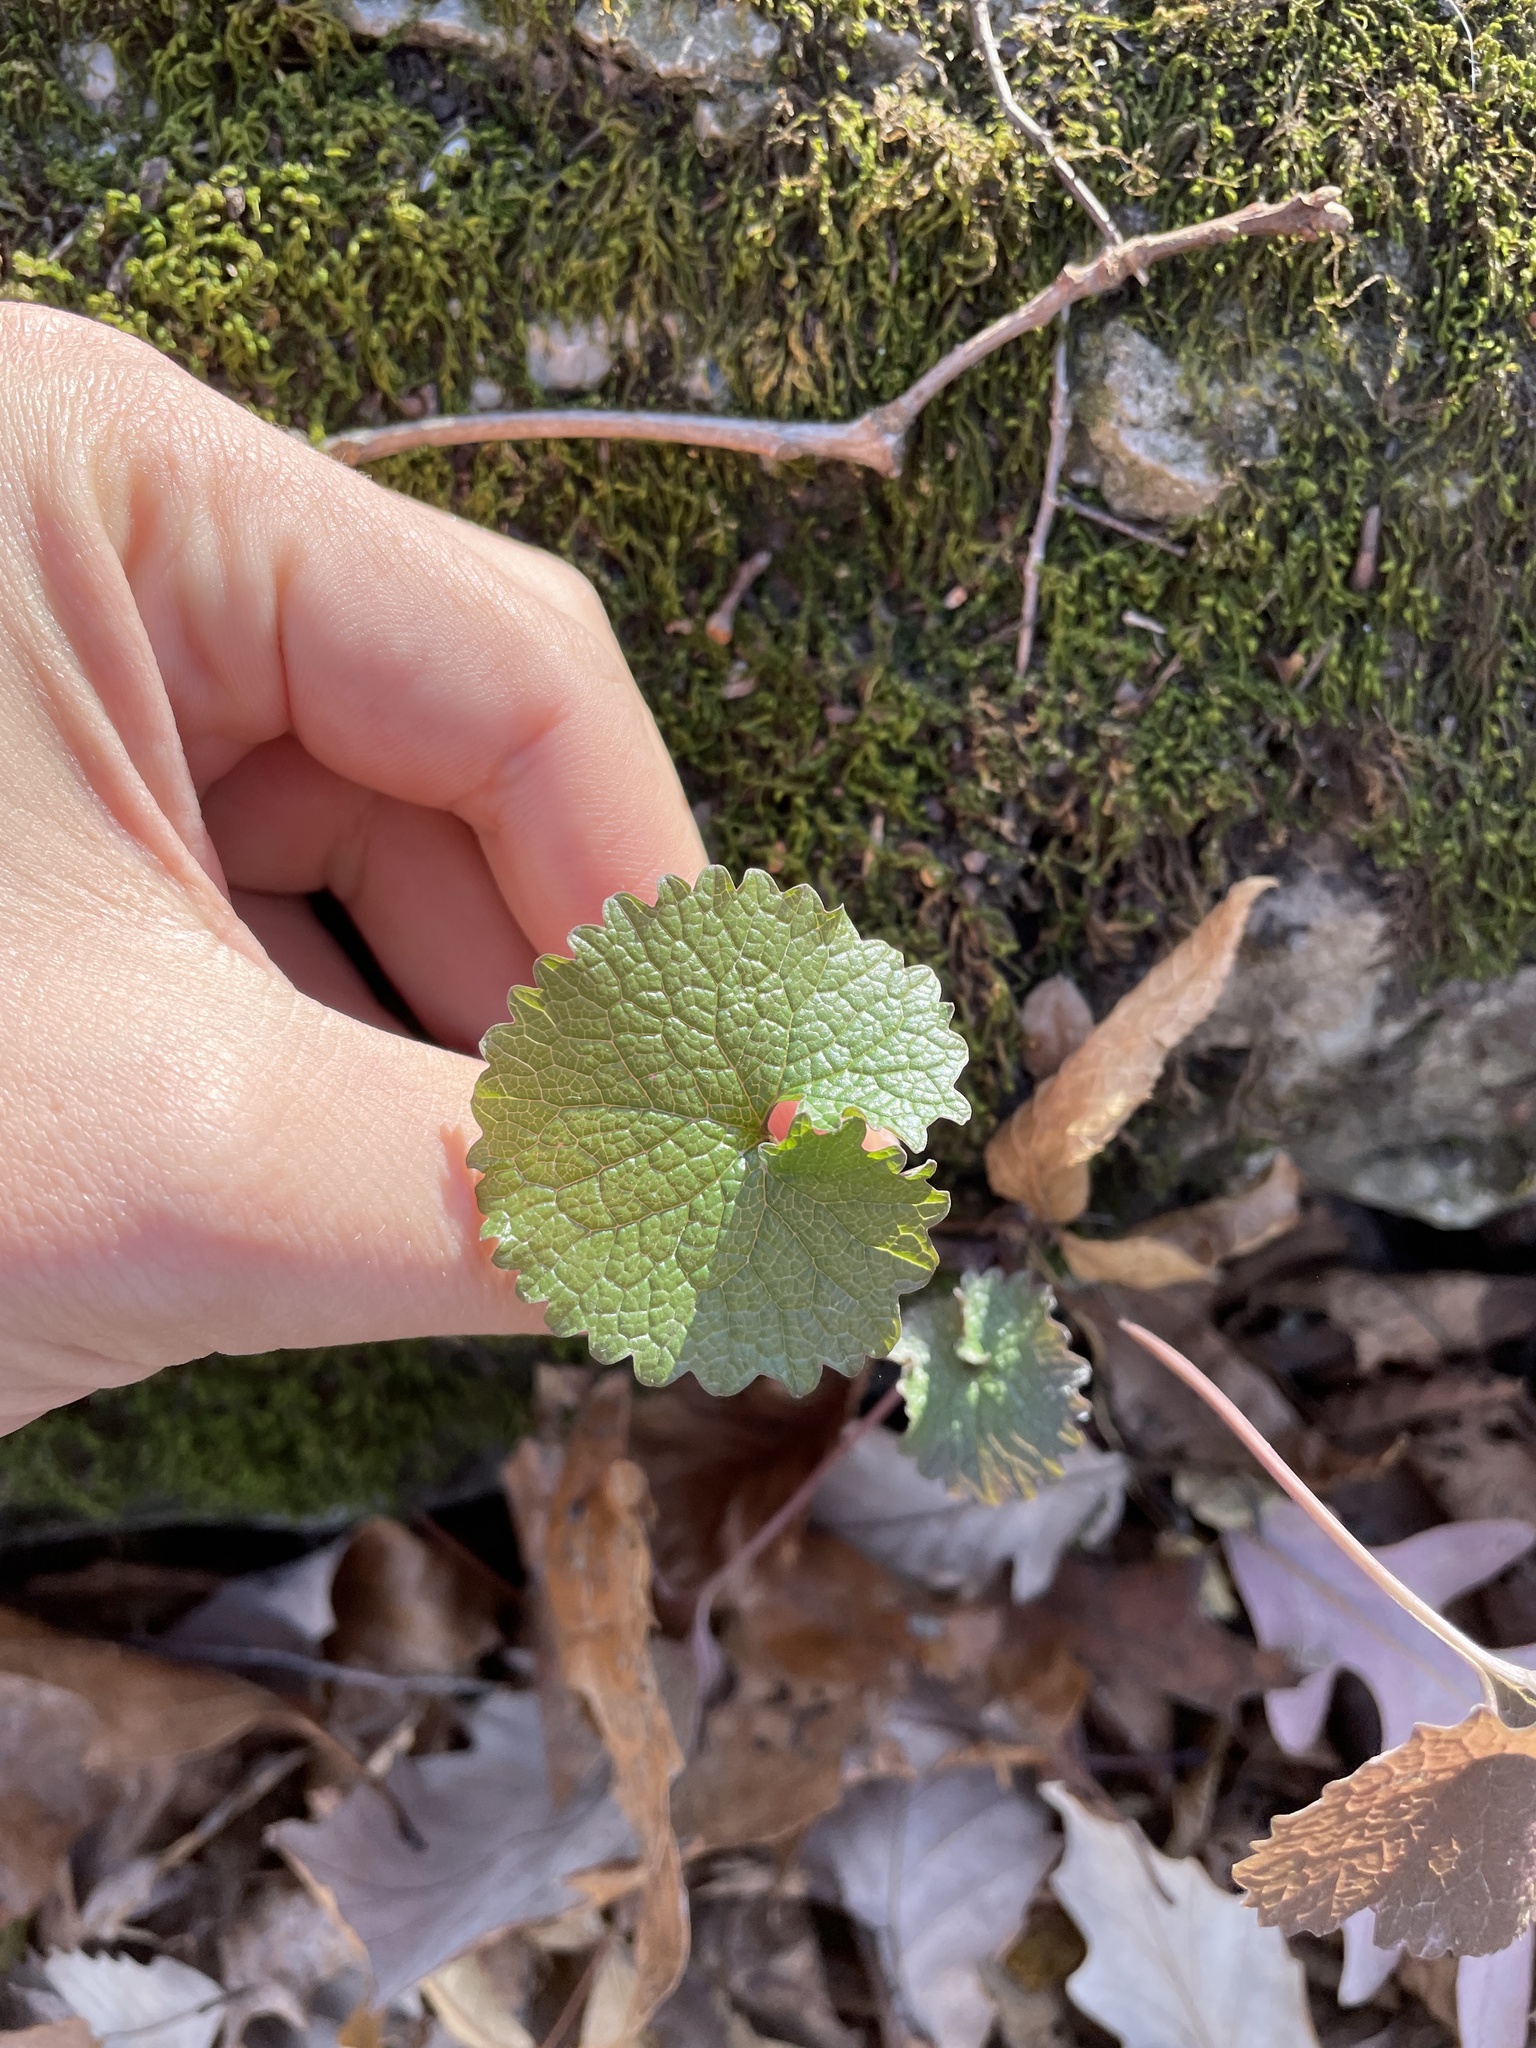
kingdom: Plantae
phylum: Tracheophyta
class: Magnoliopsida
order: Brassicales
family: Brassicaceae
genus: Alliaria
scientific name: Alliaria petiolata
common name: Garlic mustard
